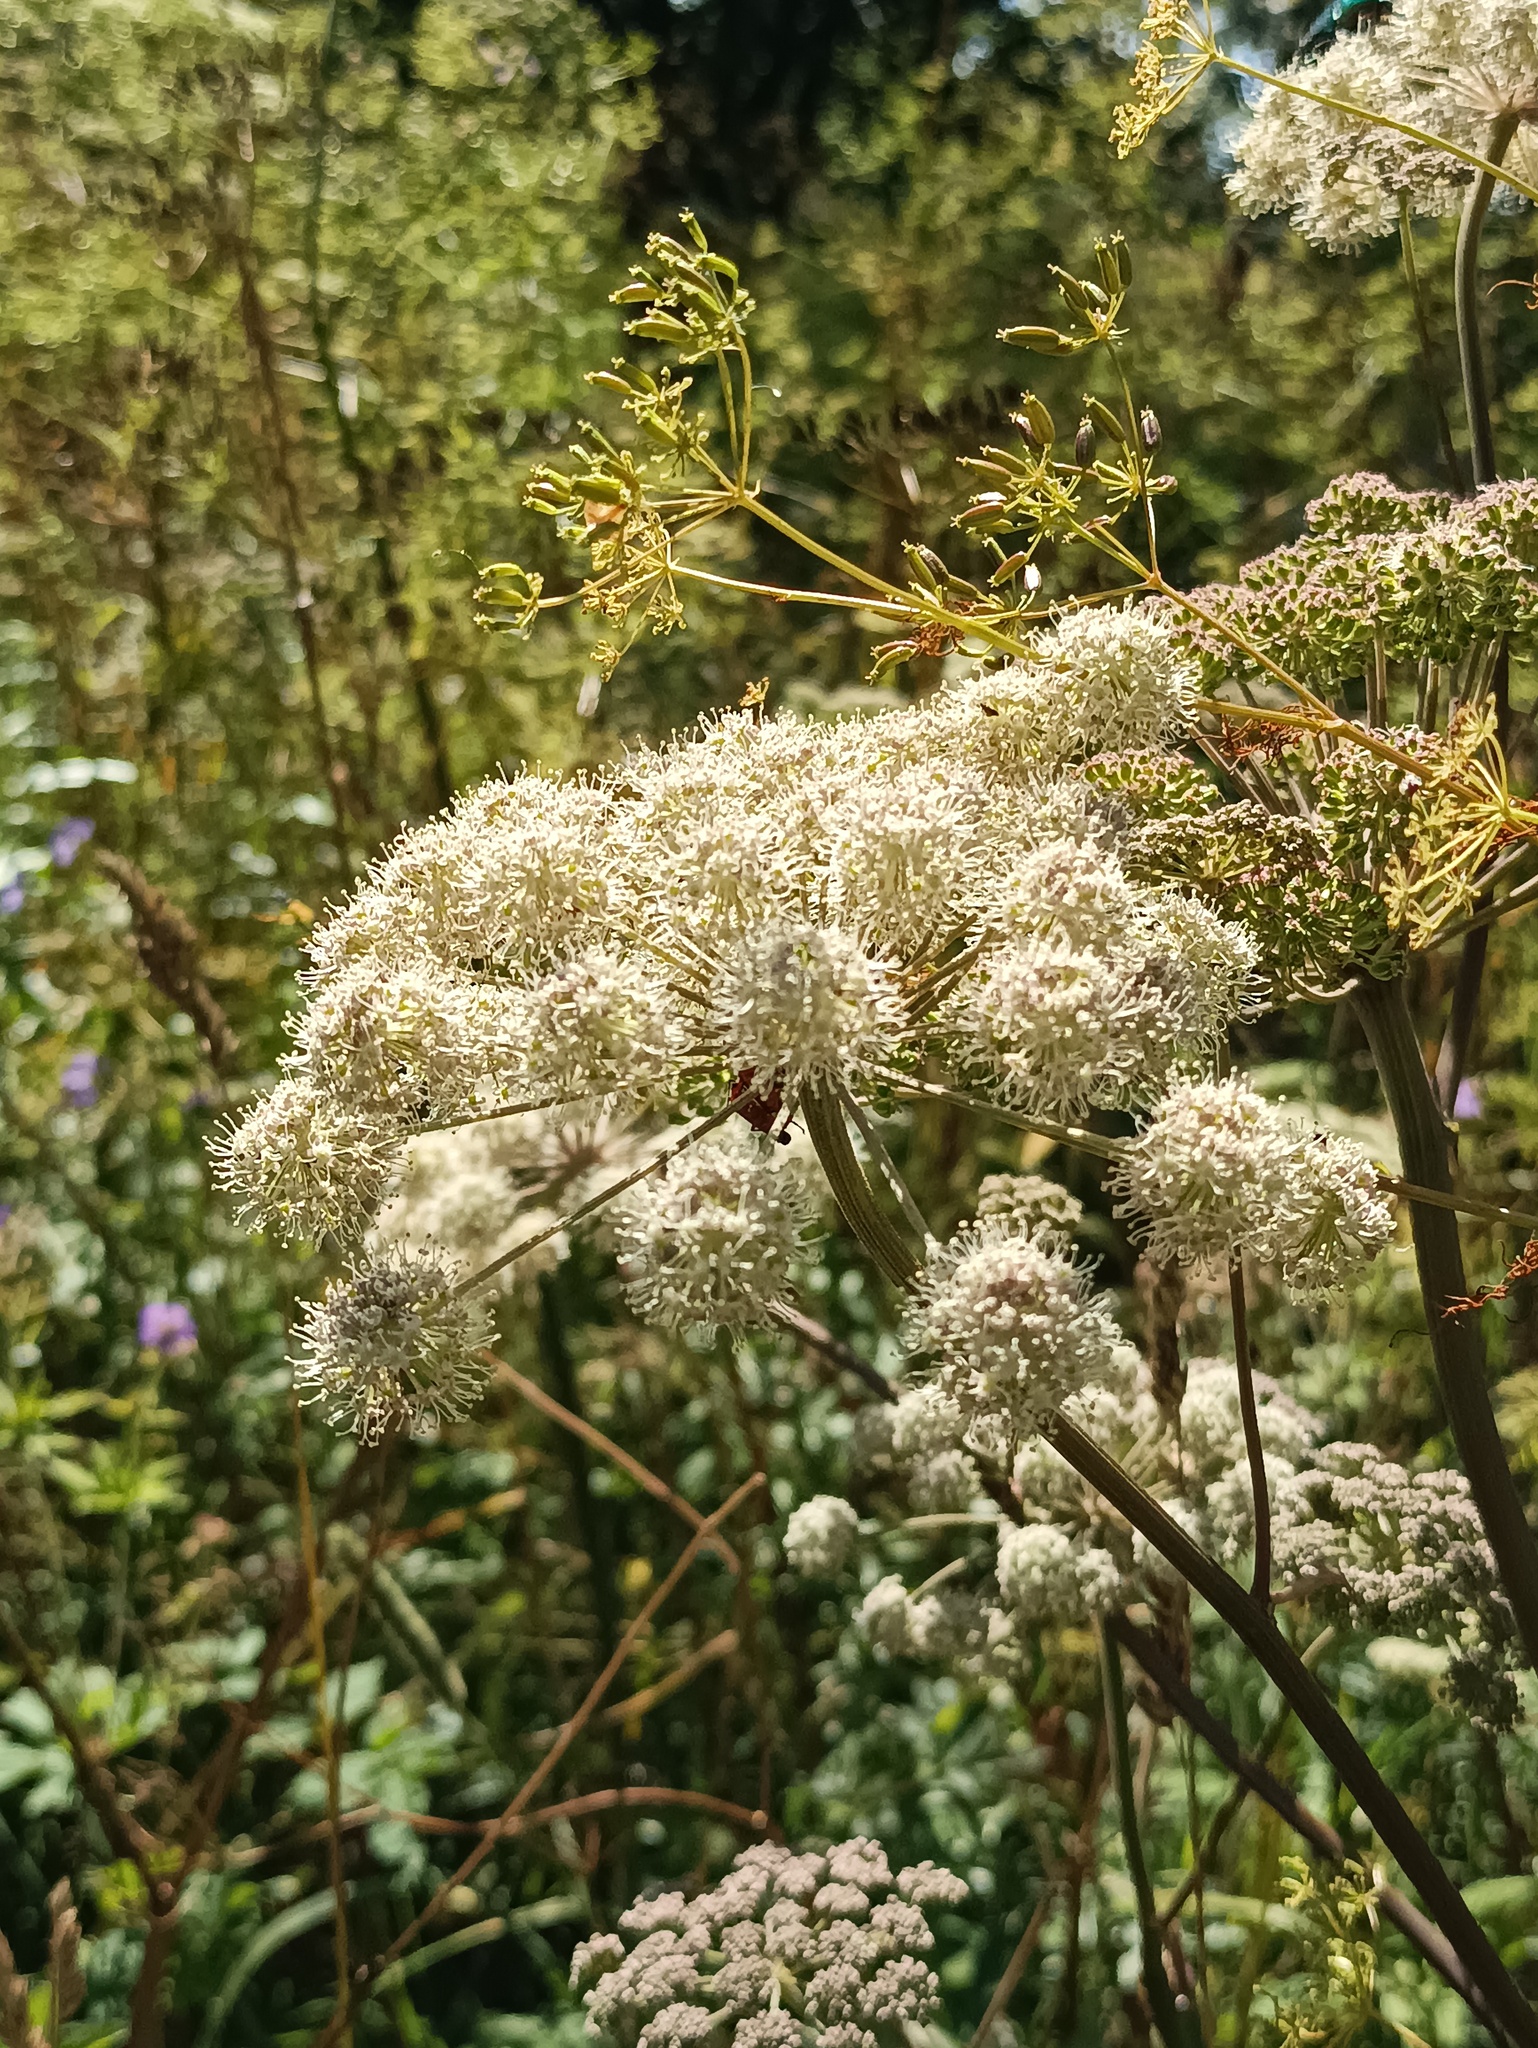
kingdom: Plantae
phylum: Tracheophyta
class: Magnoliopsida
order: Apiales
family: Apiaceae
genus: Angelica
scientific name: Angelica sylvestris
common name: Wild angelica
